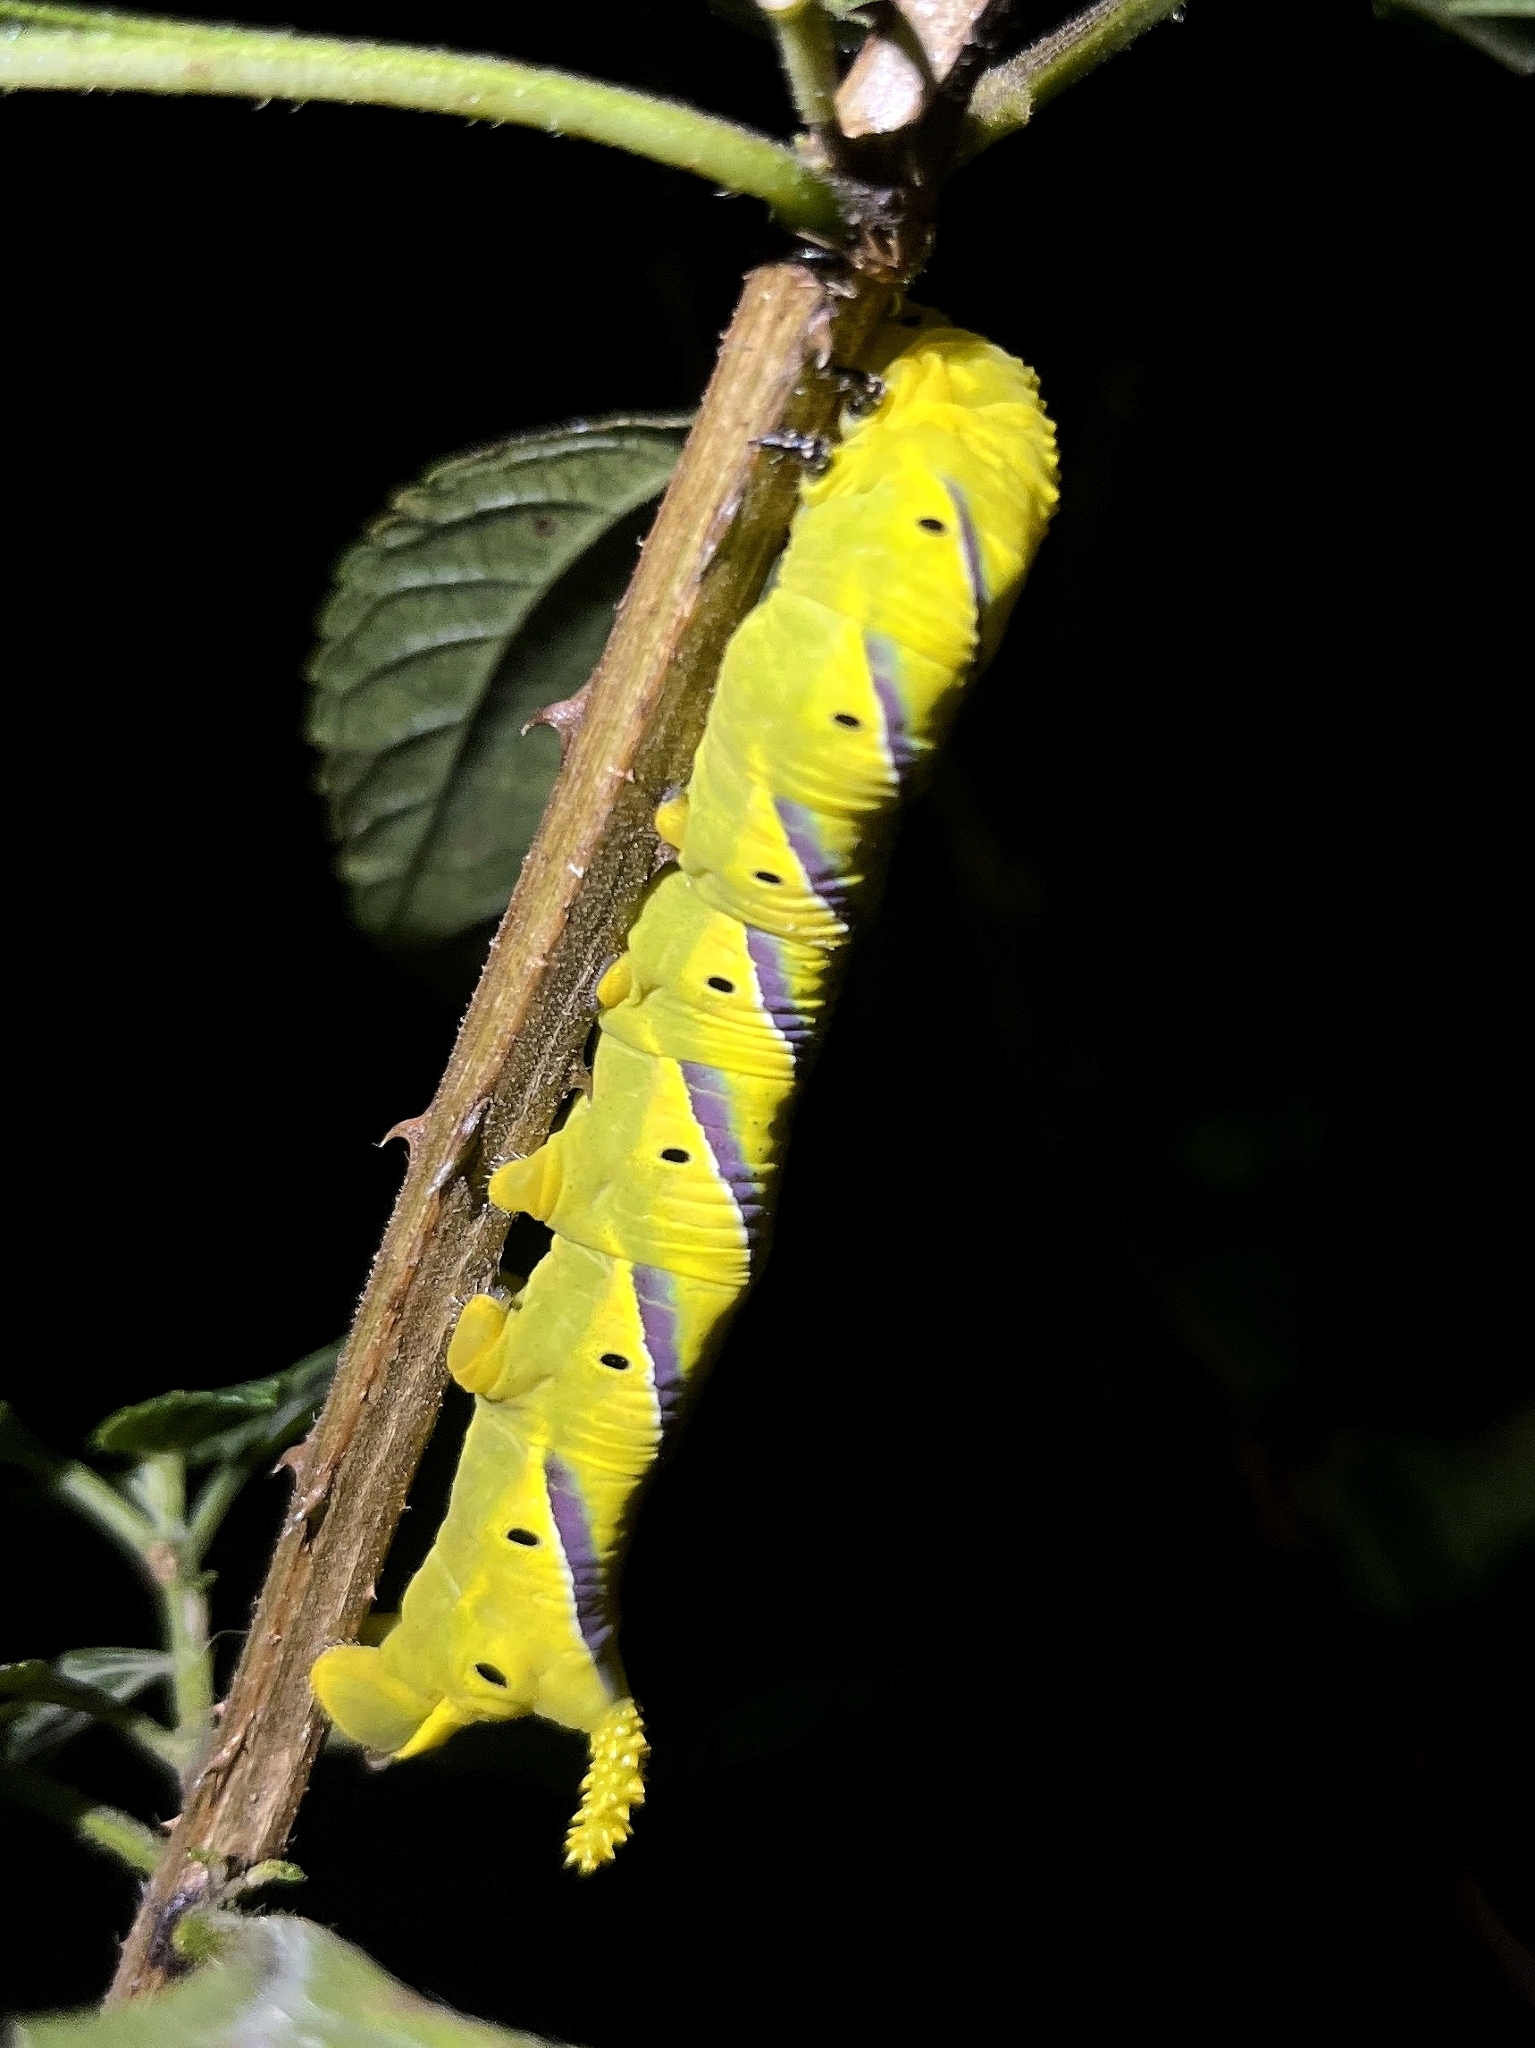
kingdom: Animalia
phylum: Arthropoda
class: Insecta
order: Lepidoptera
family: Sphingidae
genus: Acherontia
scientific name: Acherontia styx
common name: Death's-head hawk moth
